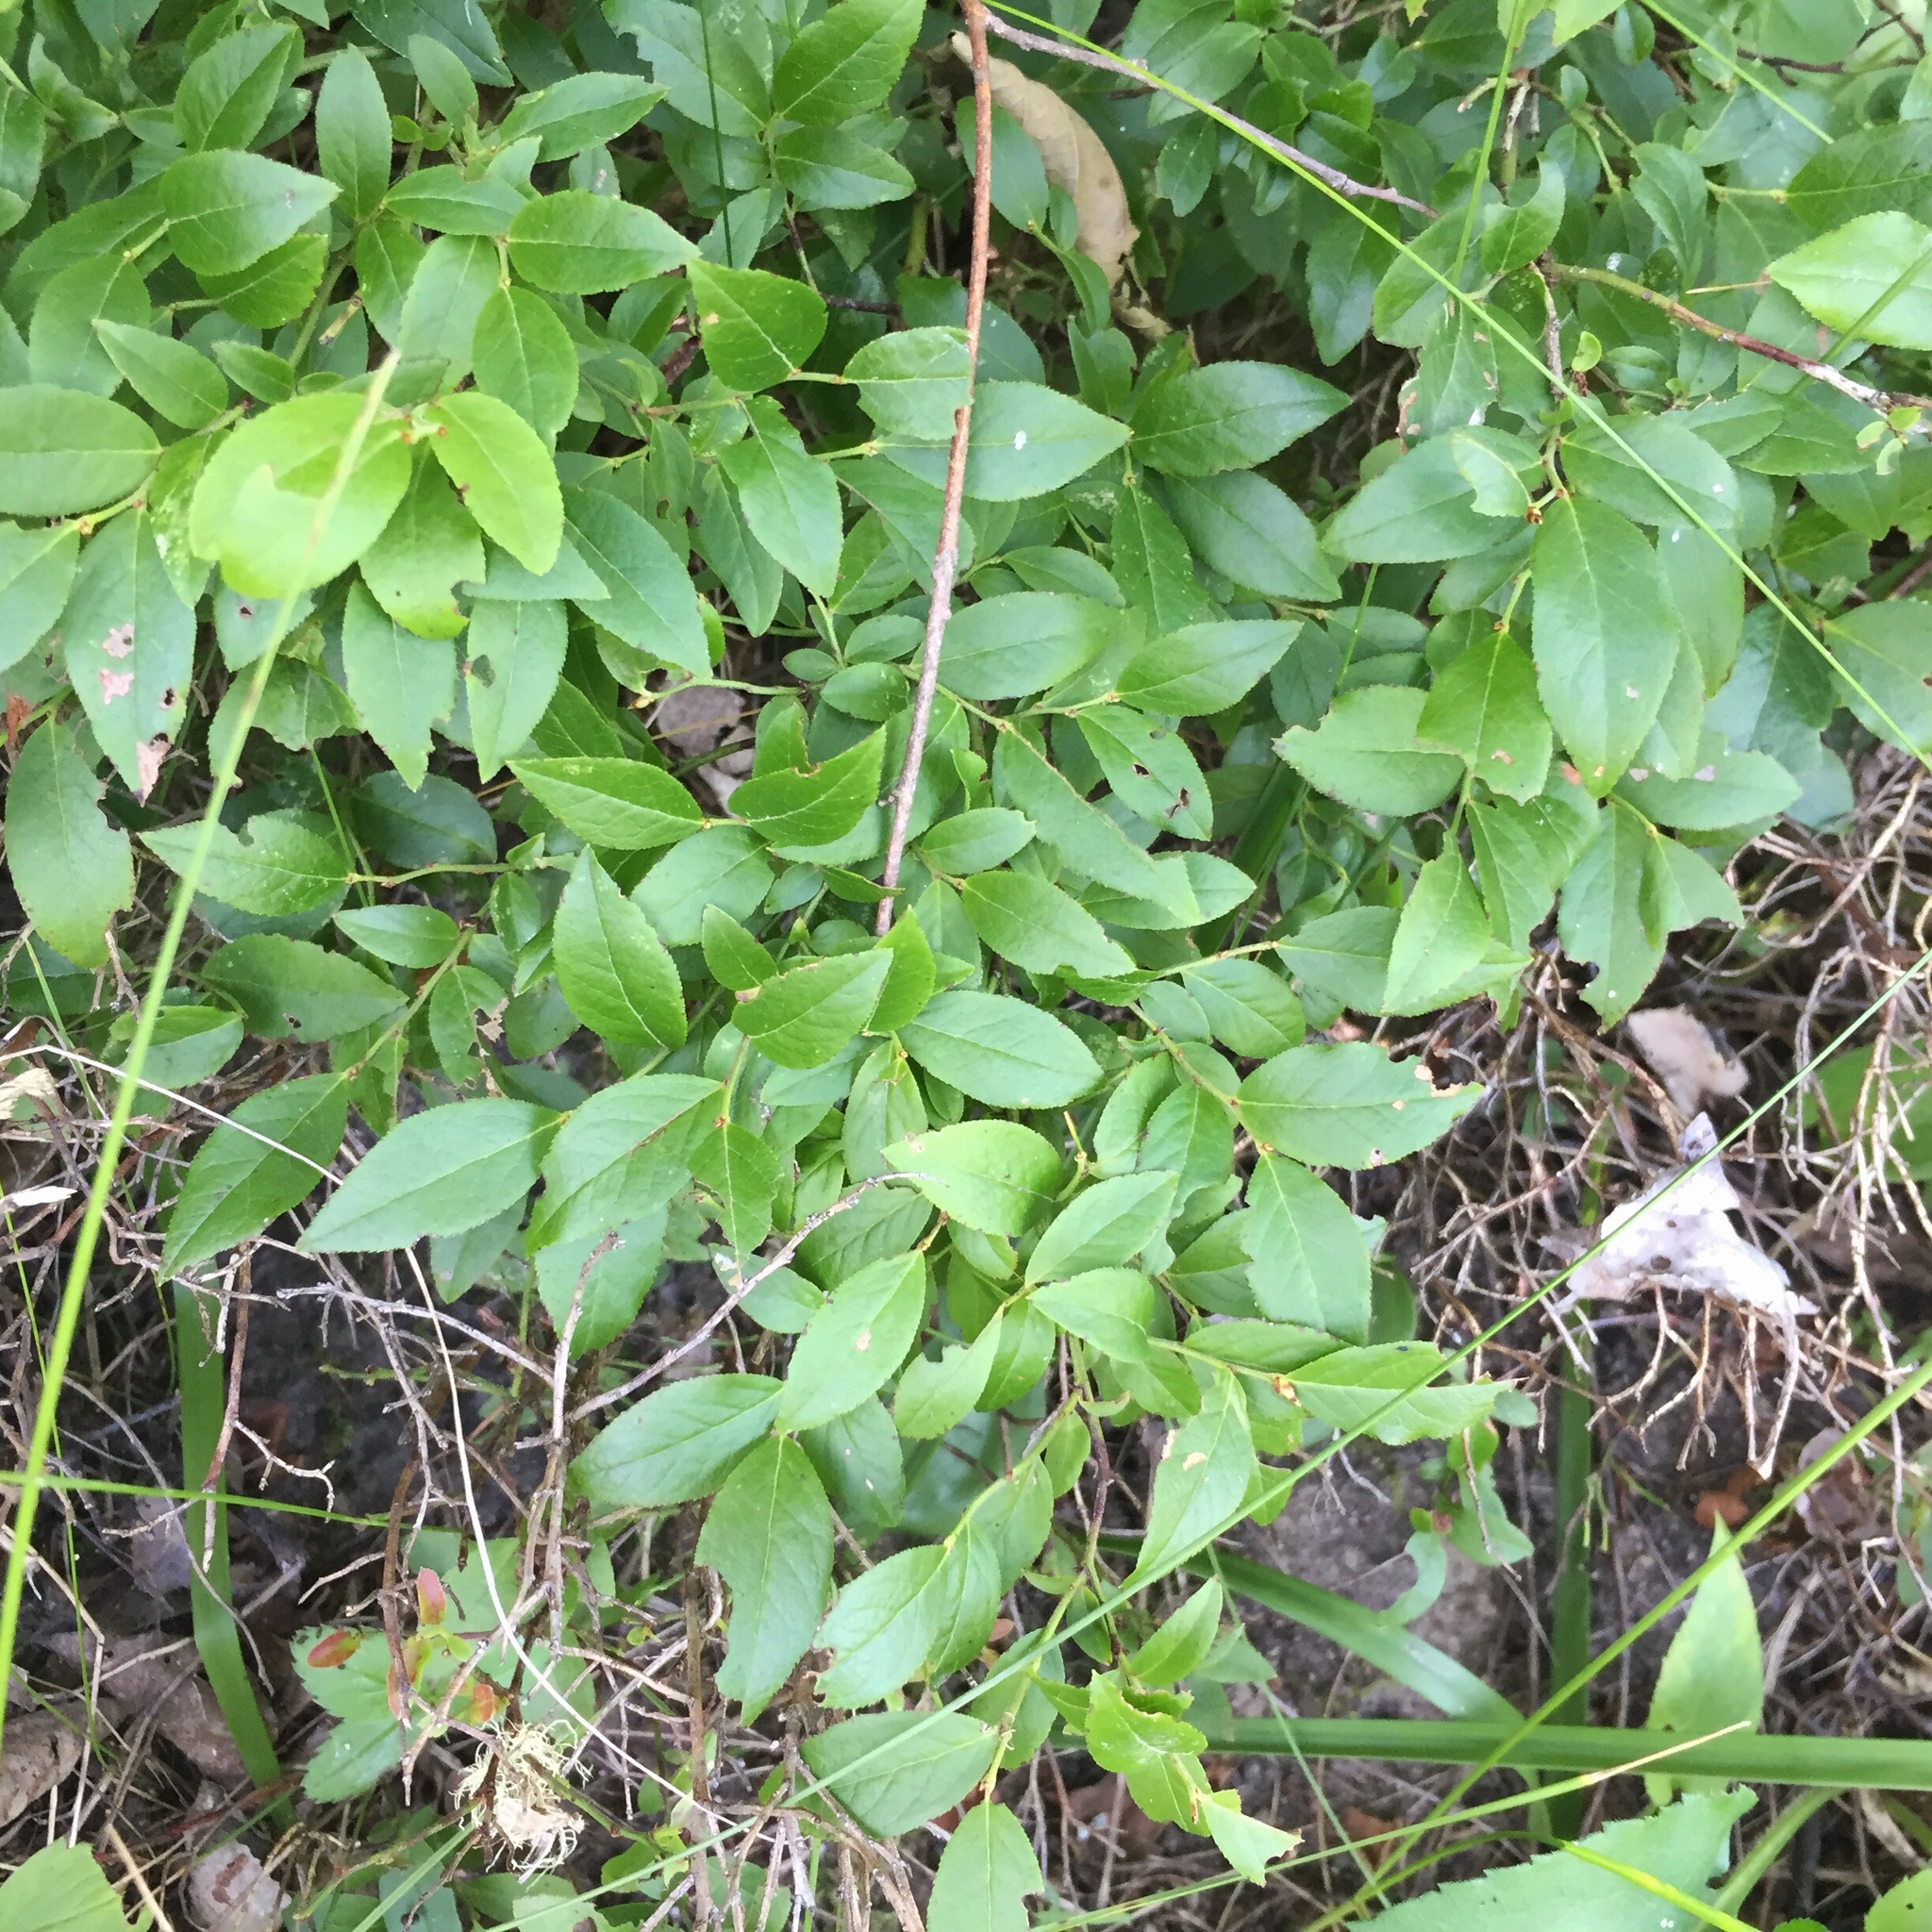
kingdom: Plantae
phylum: Tracheophyta
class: Magnoliopsida
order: Ericales
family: Ericaceae
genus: Vaccinium
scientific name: Vaccinium angustifolium
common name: Early lowbush blueberry
